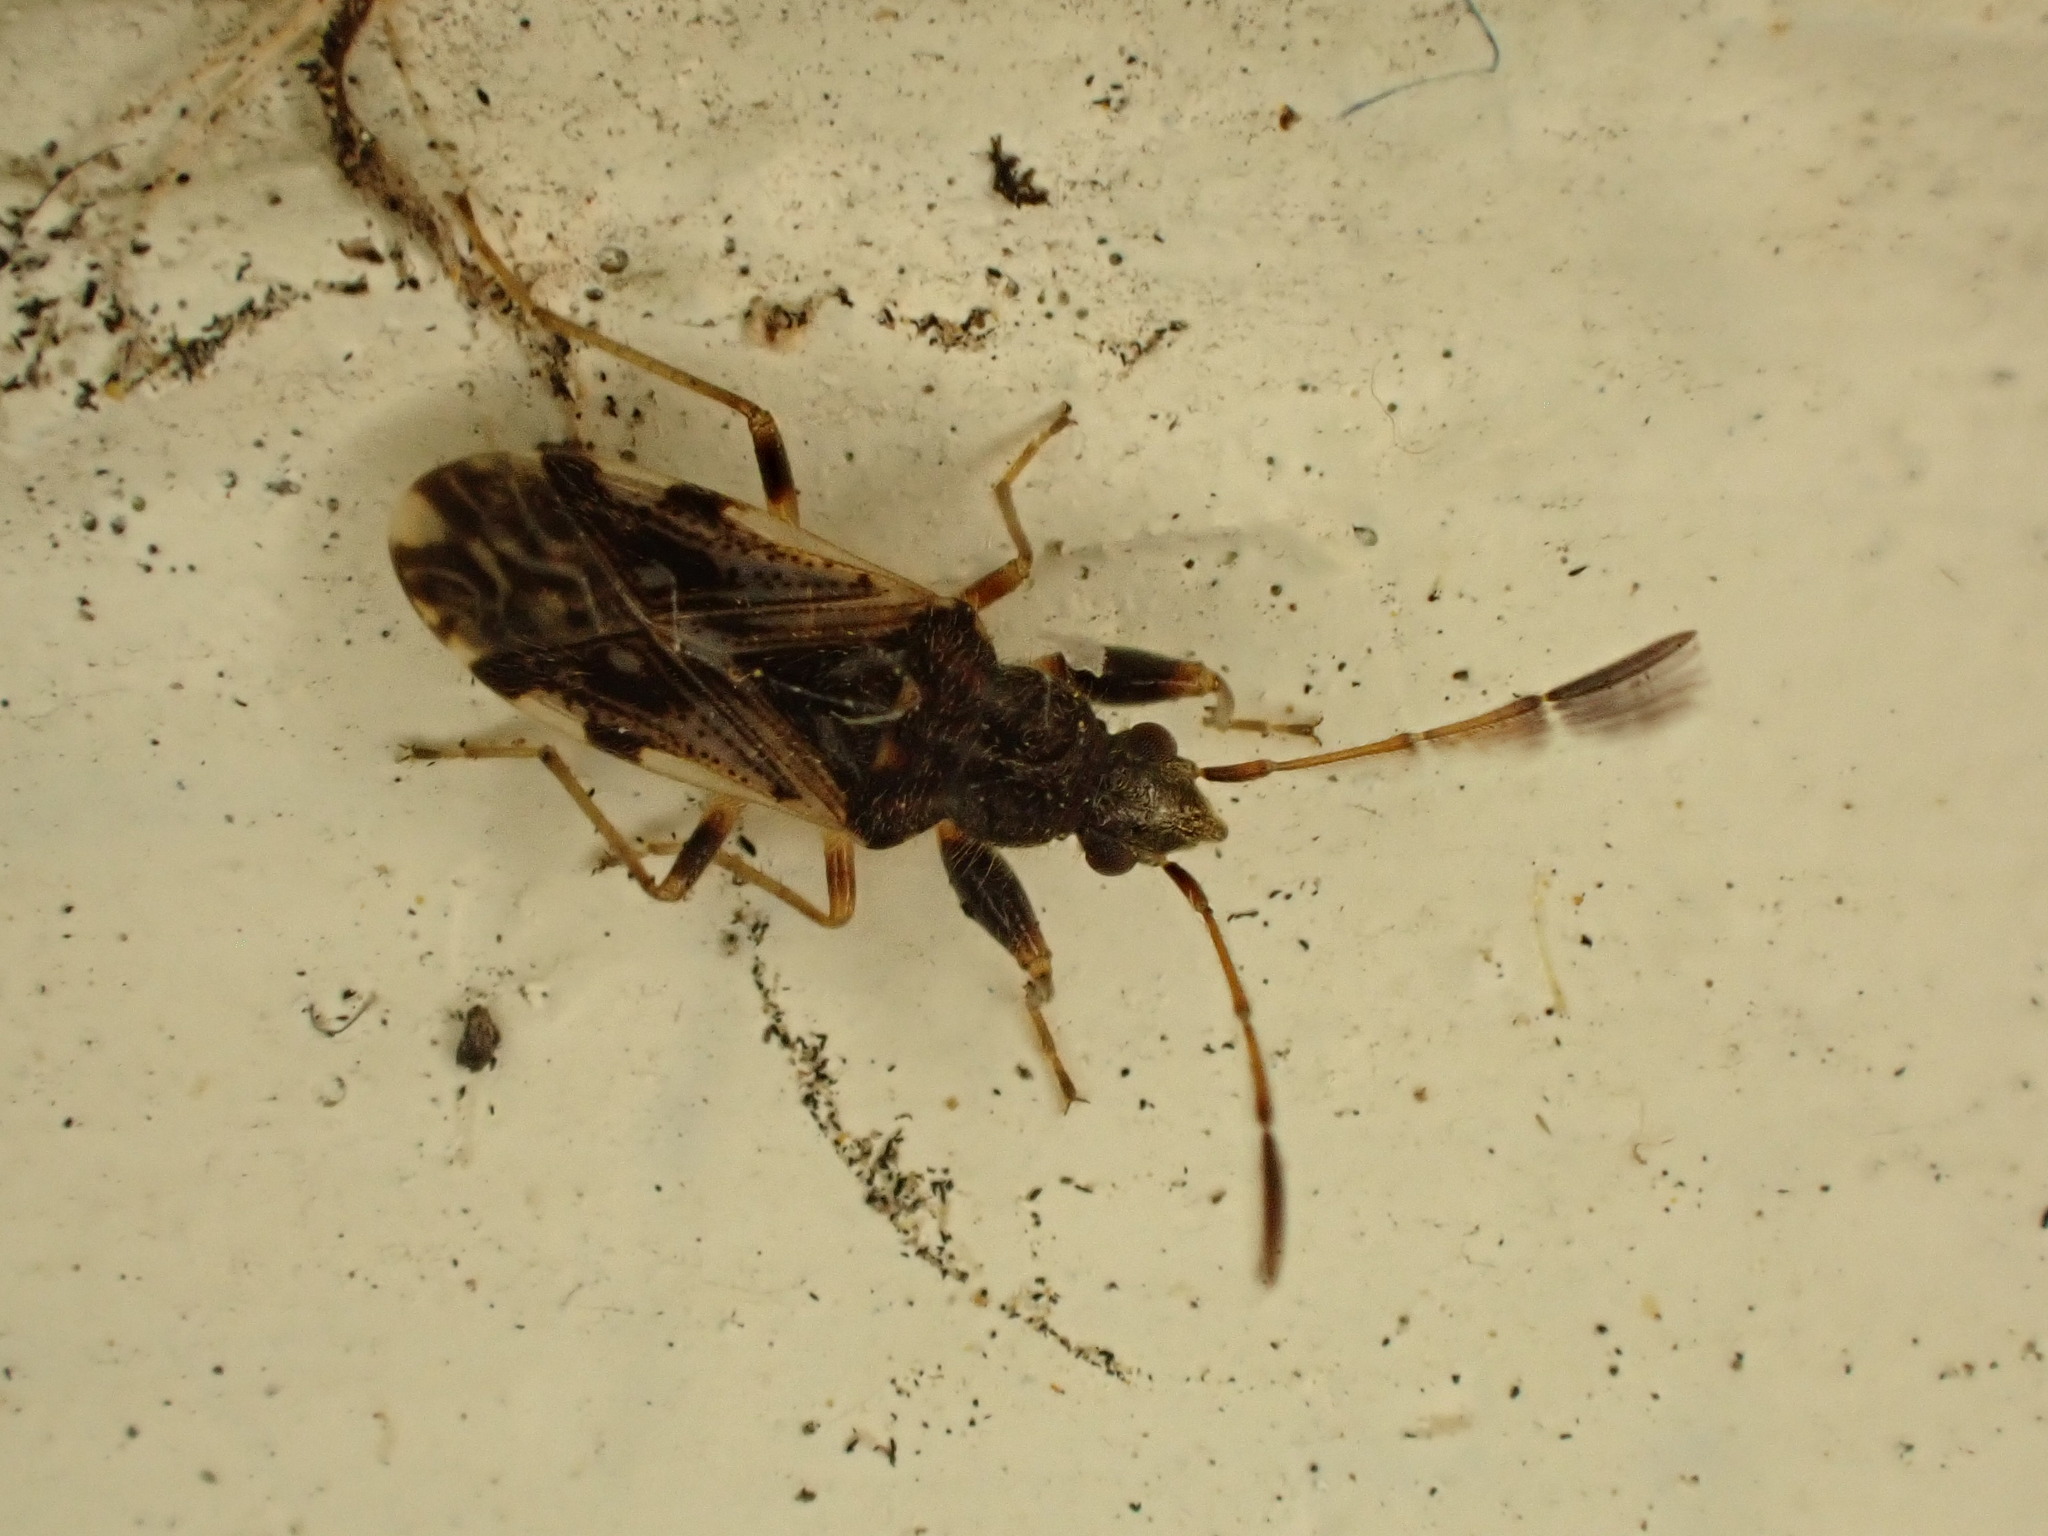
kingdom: Animalia
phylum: Arthropoda
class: Insecta
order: Hemiptera
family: Rhyparochromidae
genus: Remaudiereana
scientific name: Remaudiereana inornatus
